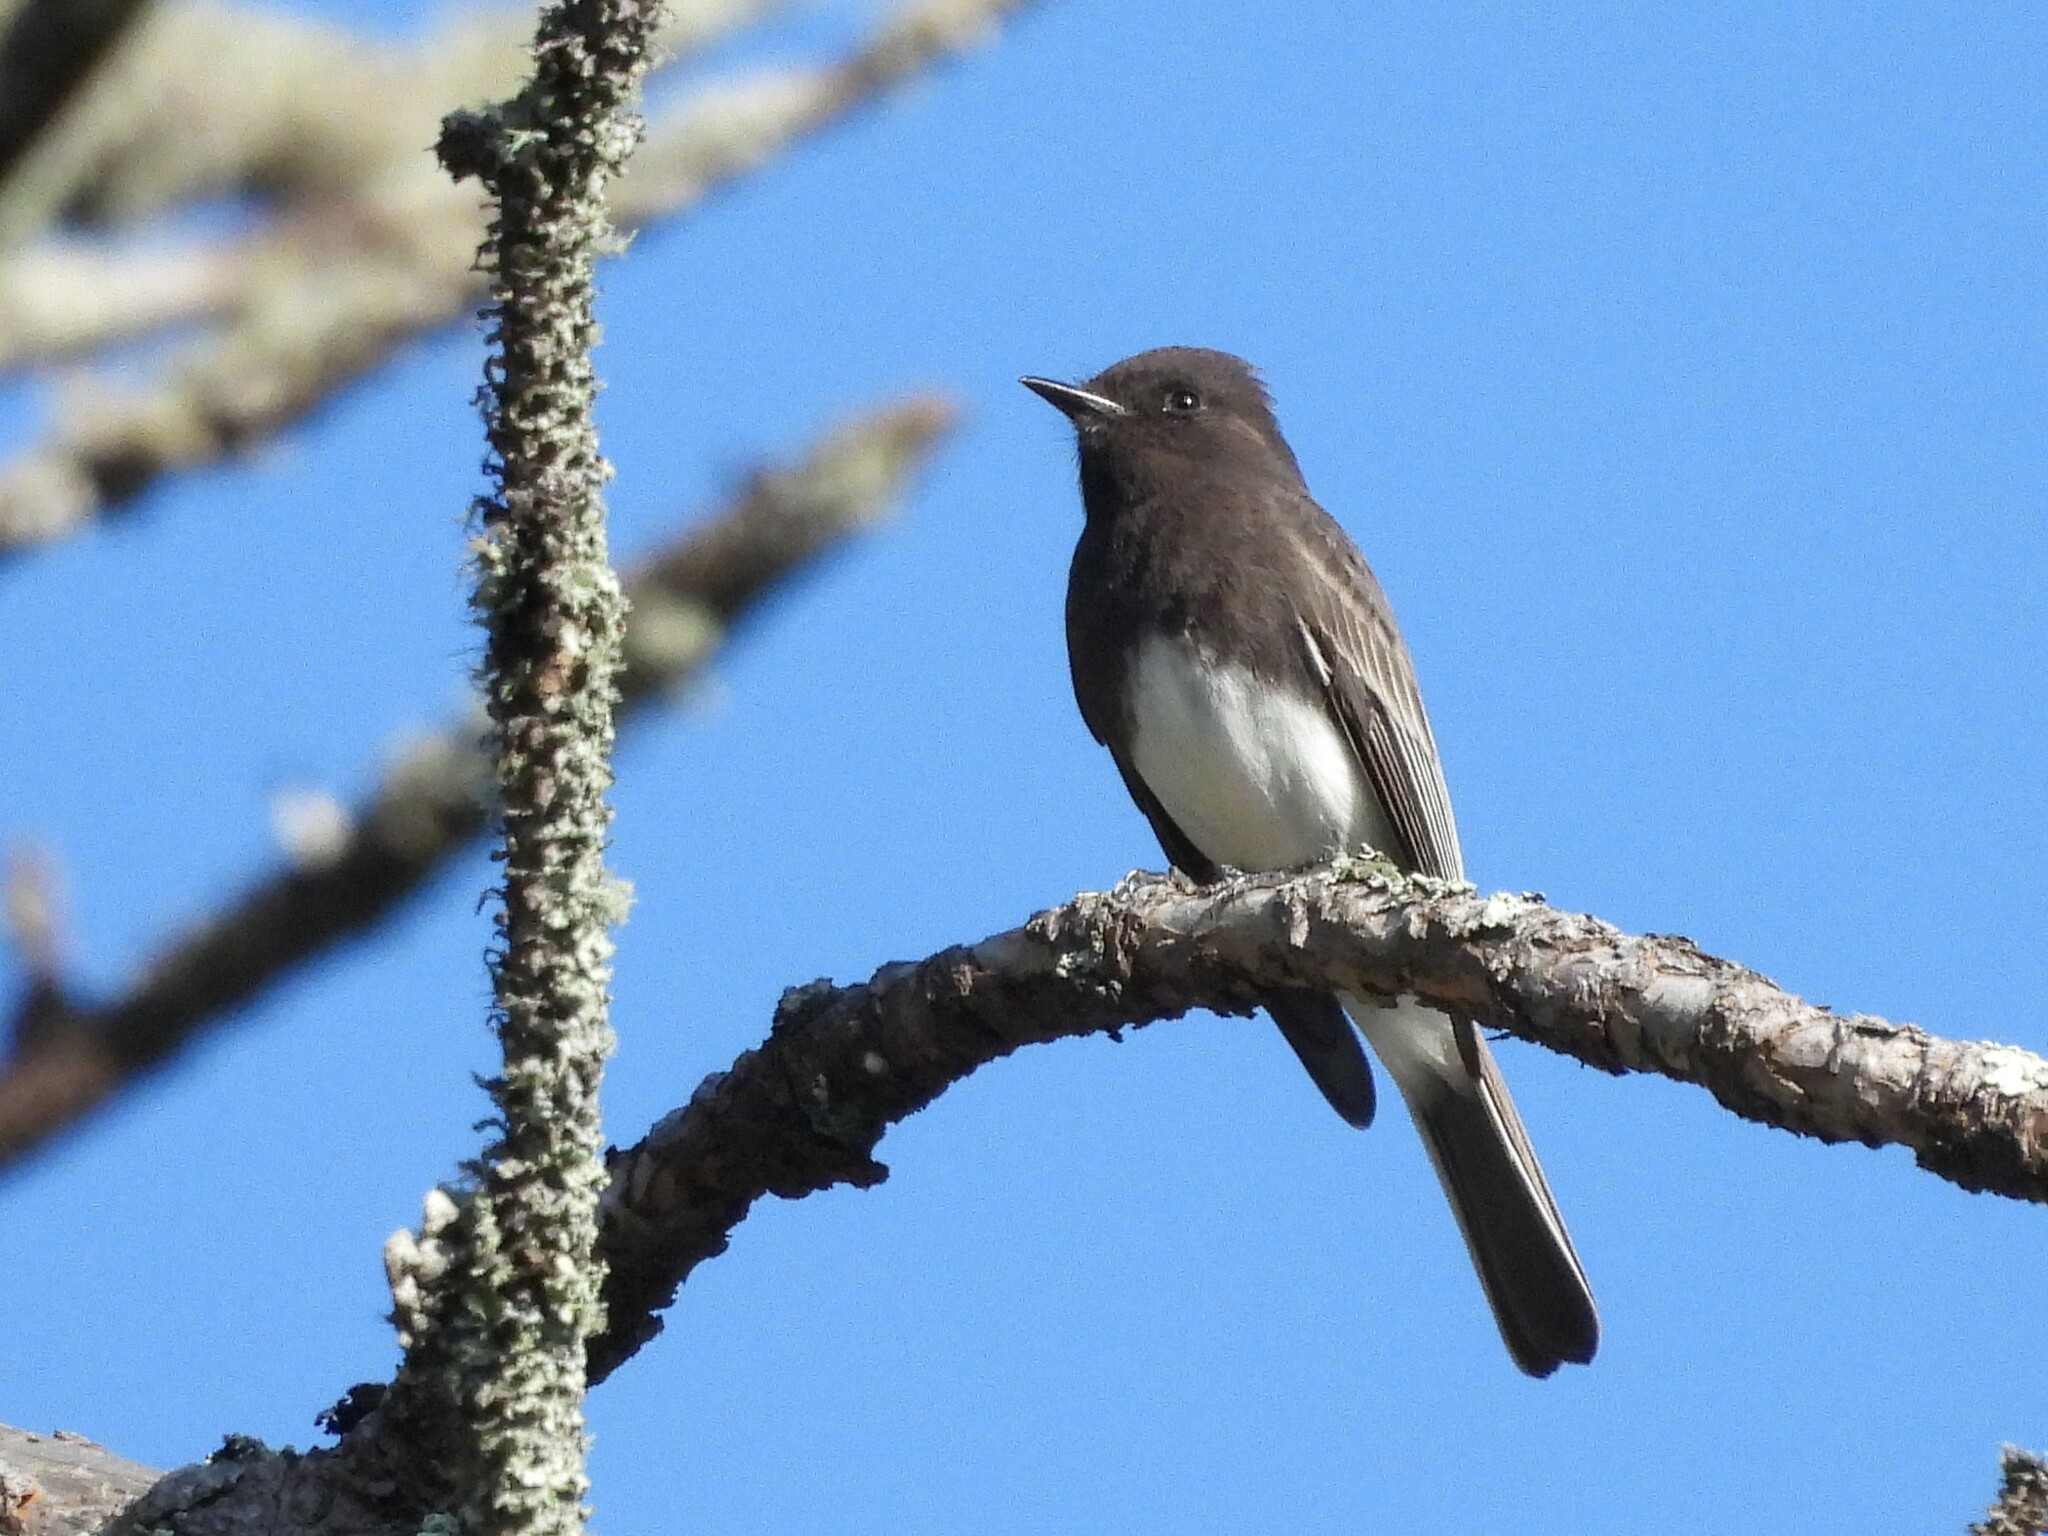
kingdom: Animalia
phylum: Chordata
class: Aves
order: Passeriformes
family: Tyrannidae
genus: Sayornis
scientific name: Sayornis nigricans
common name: Black phoebe
